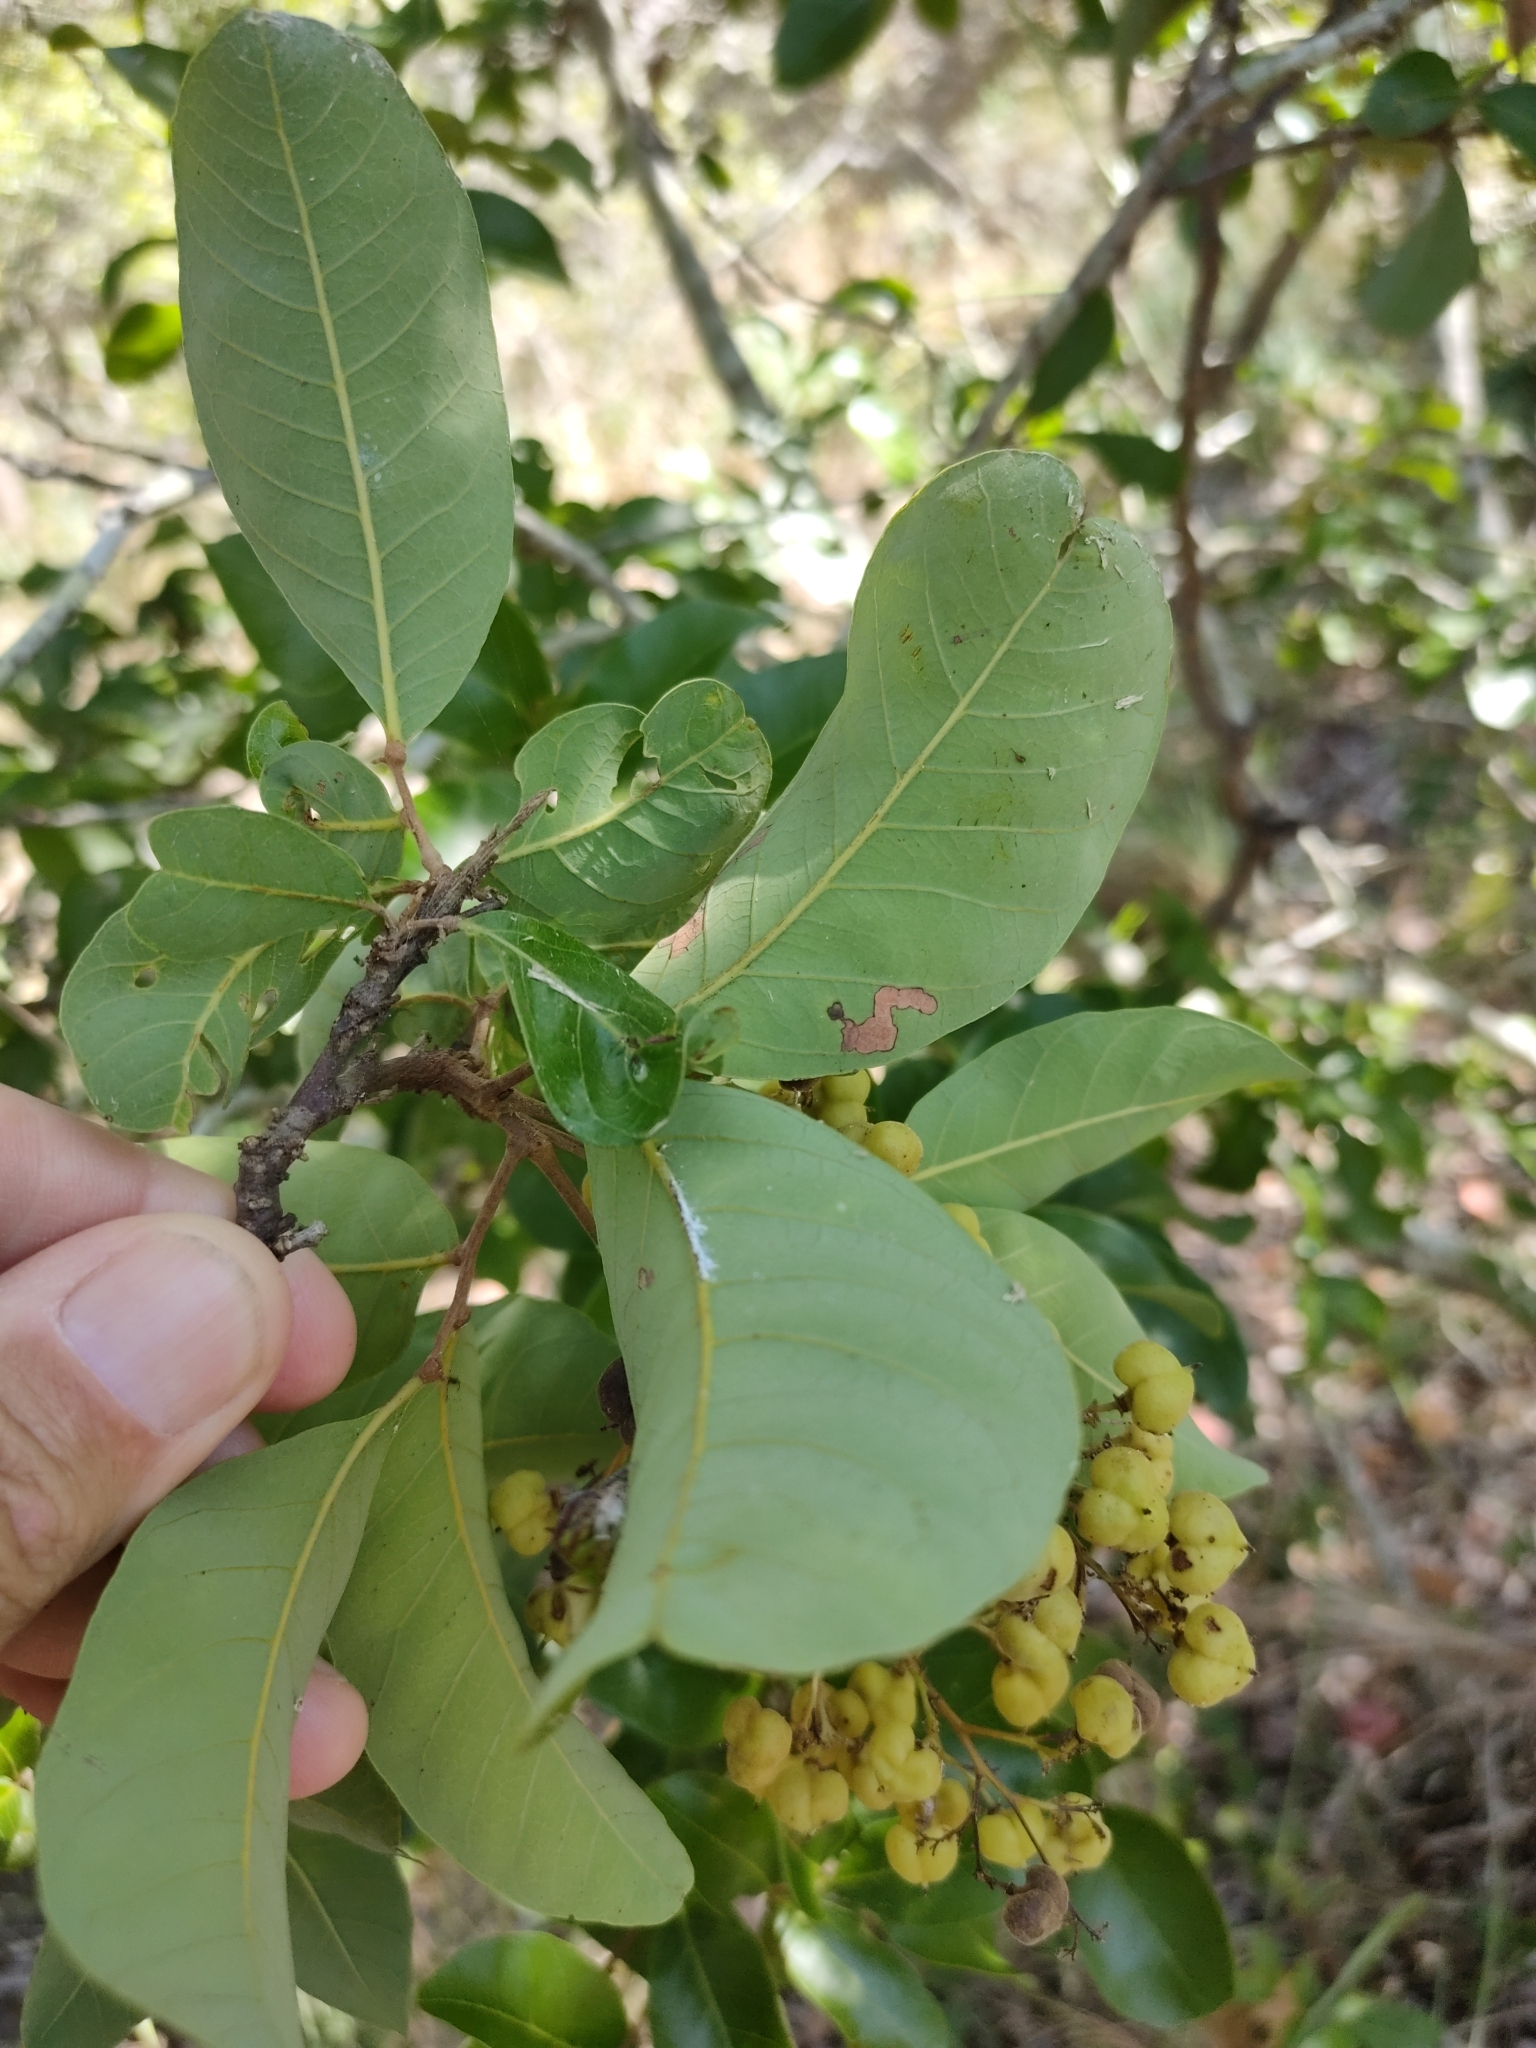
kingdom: Plantae
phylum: Tracheophyta
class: Magnoliopsida
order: Sapindales
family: Sapindaceae
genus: Alectryon
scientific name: Alectryon connatus
